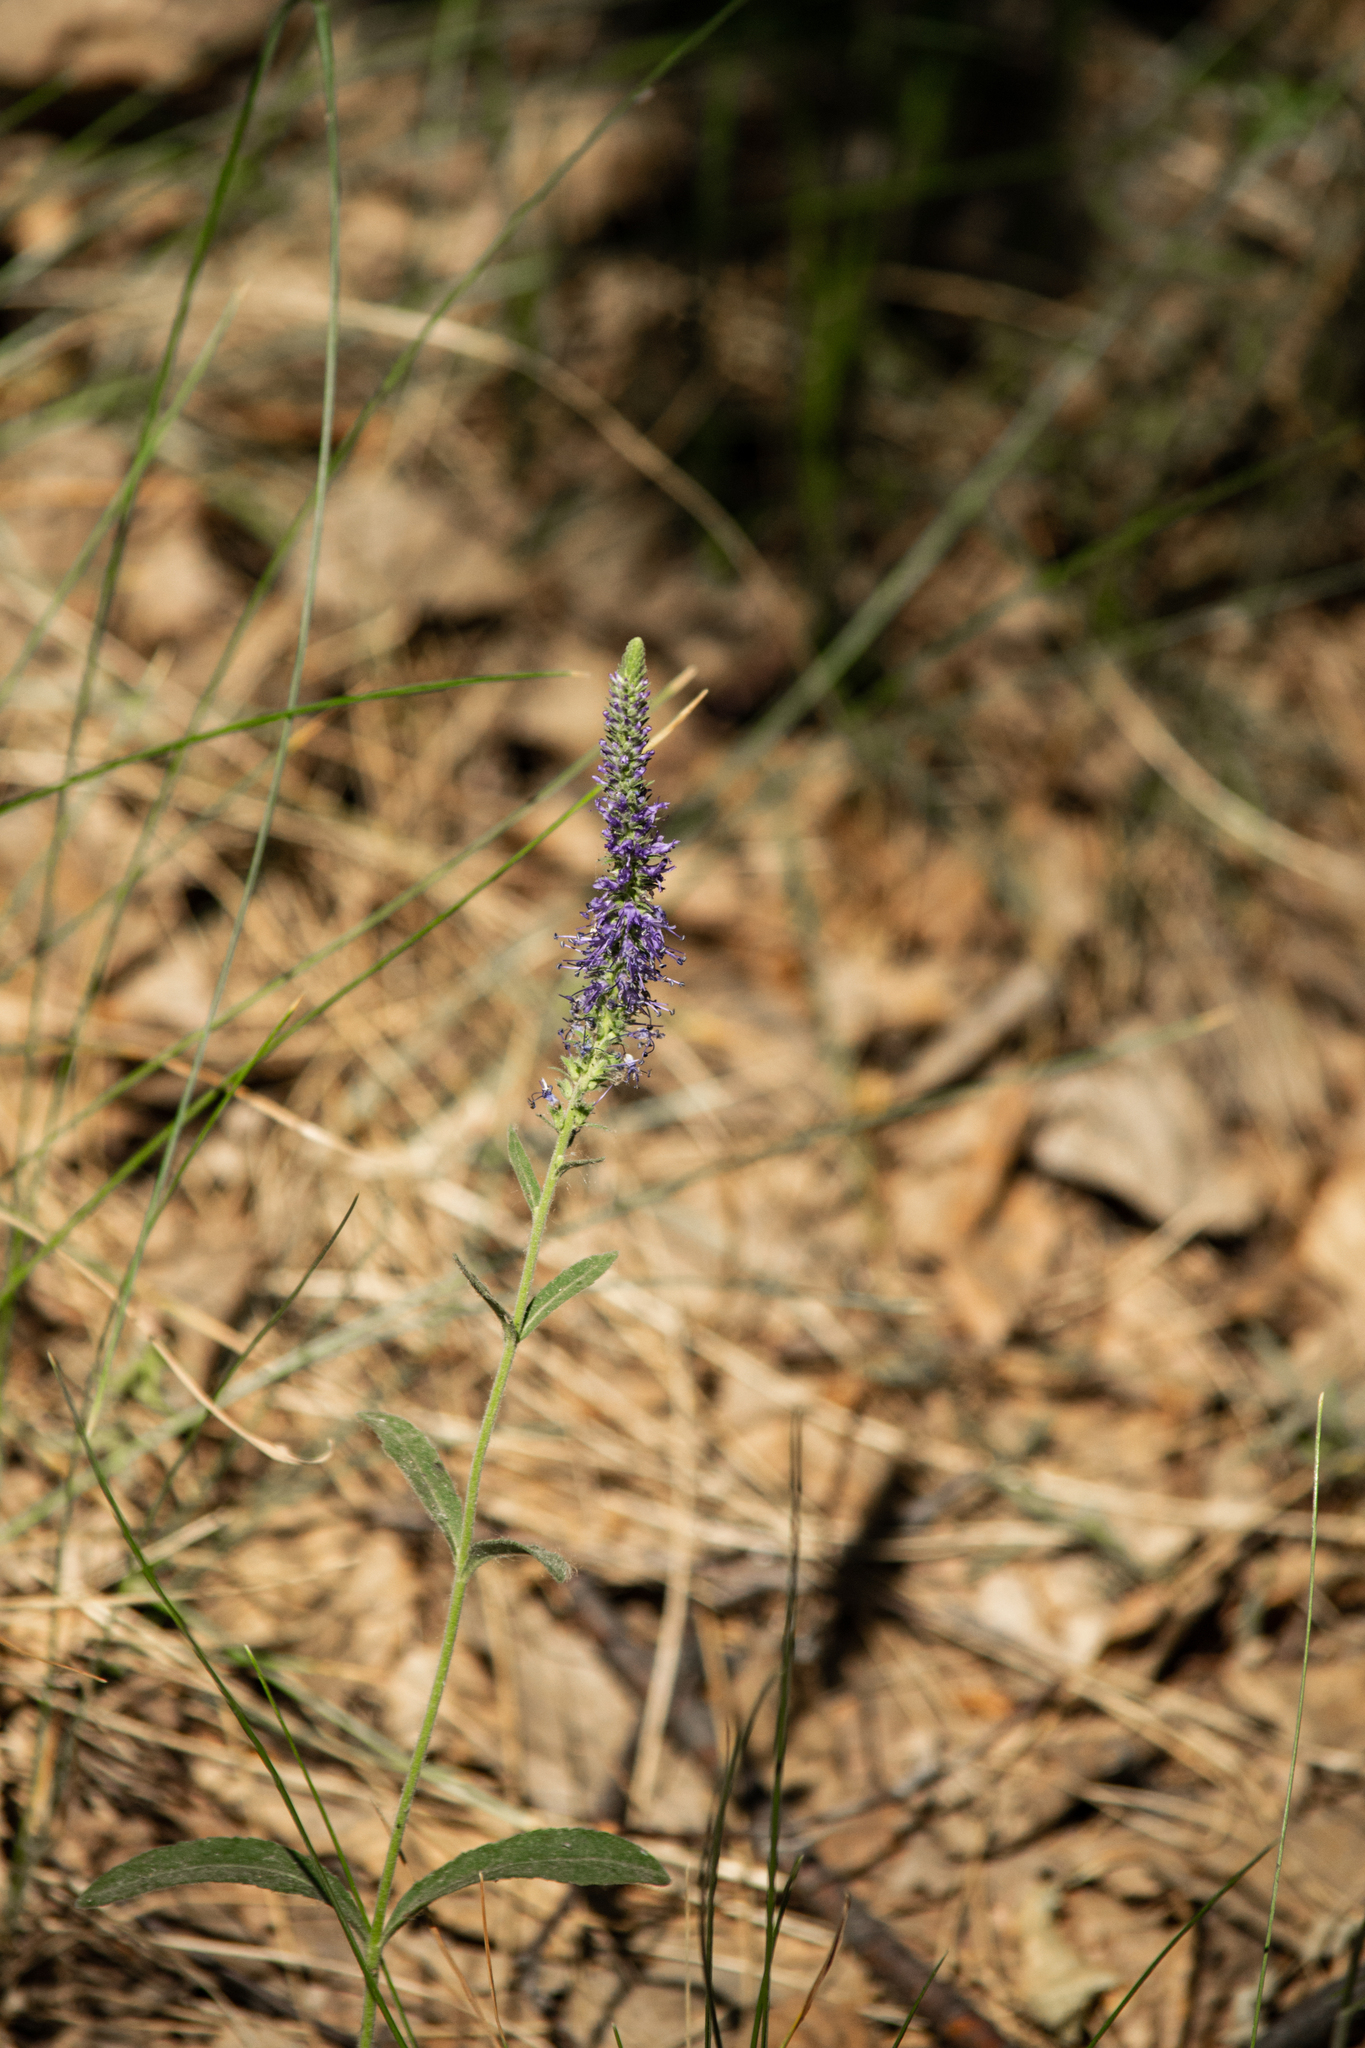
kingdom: Plantae
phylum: Tracheophyta
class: Magnoliopsida
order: Lamiales
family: Plantaginaceae
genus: Veronica
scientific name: Veronica spicata
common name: Spiked speedwell
